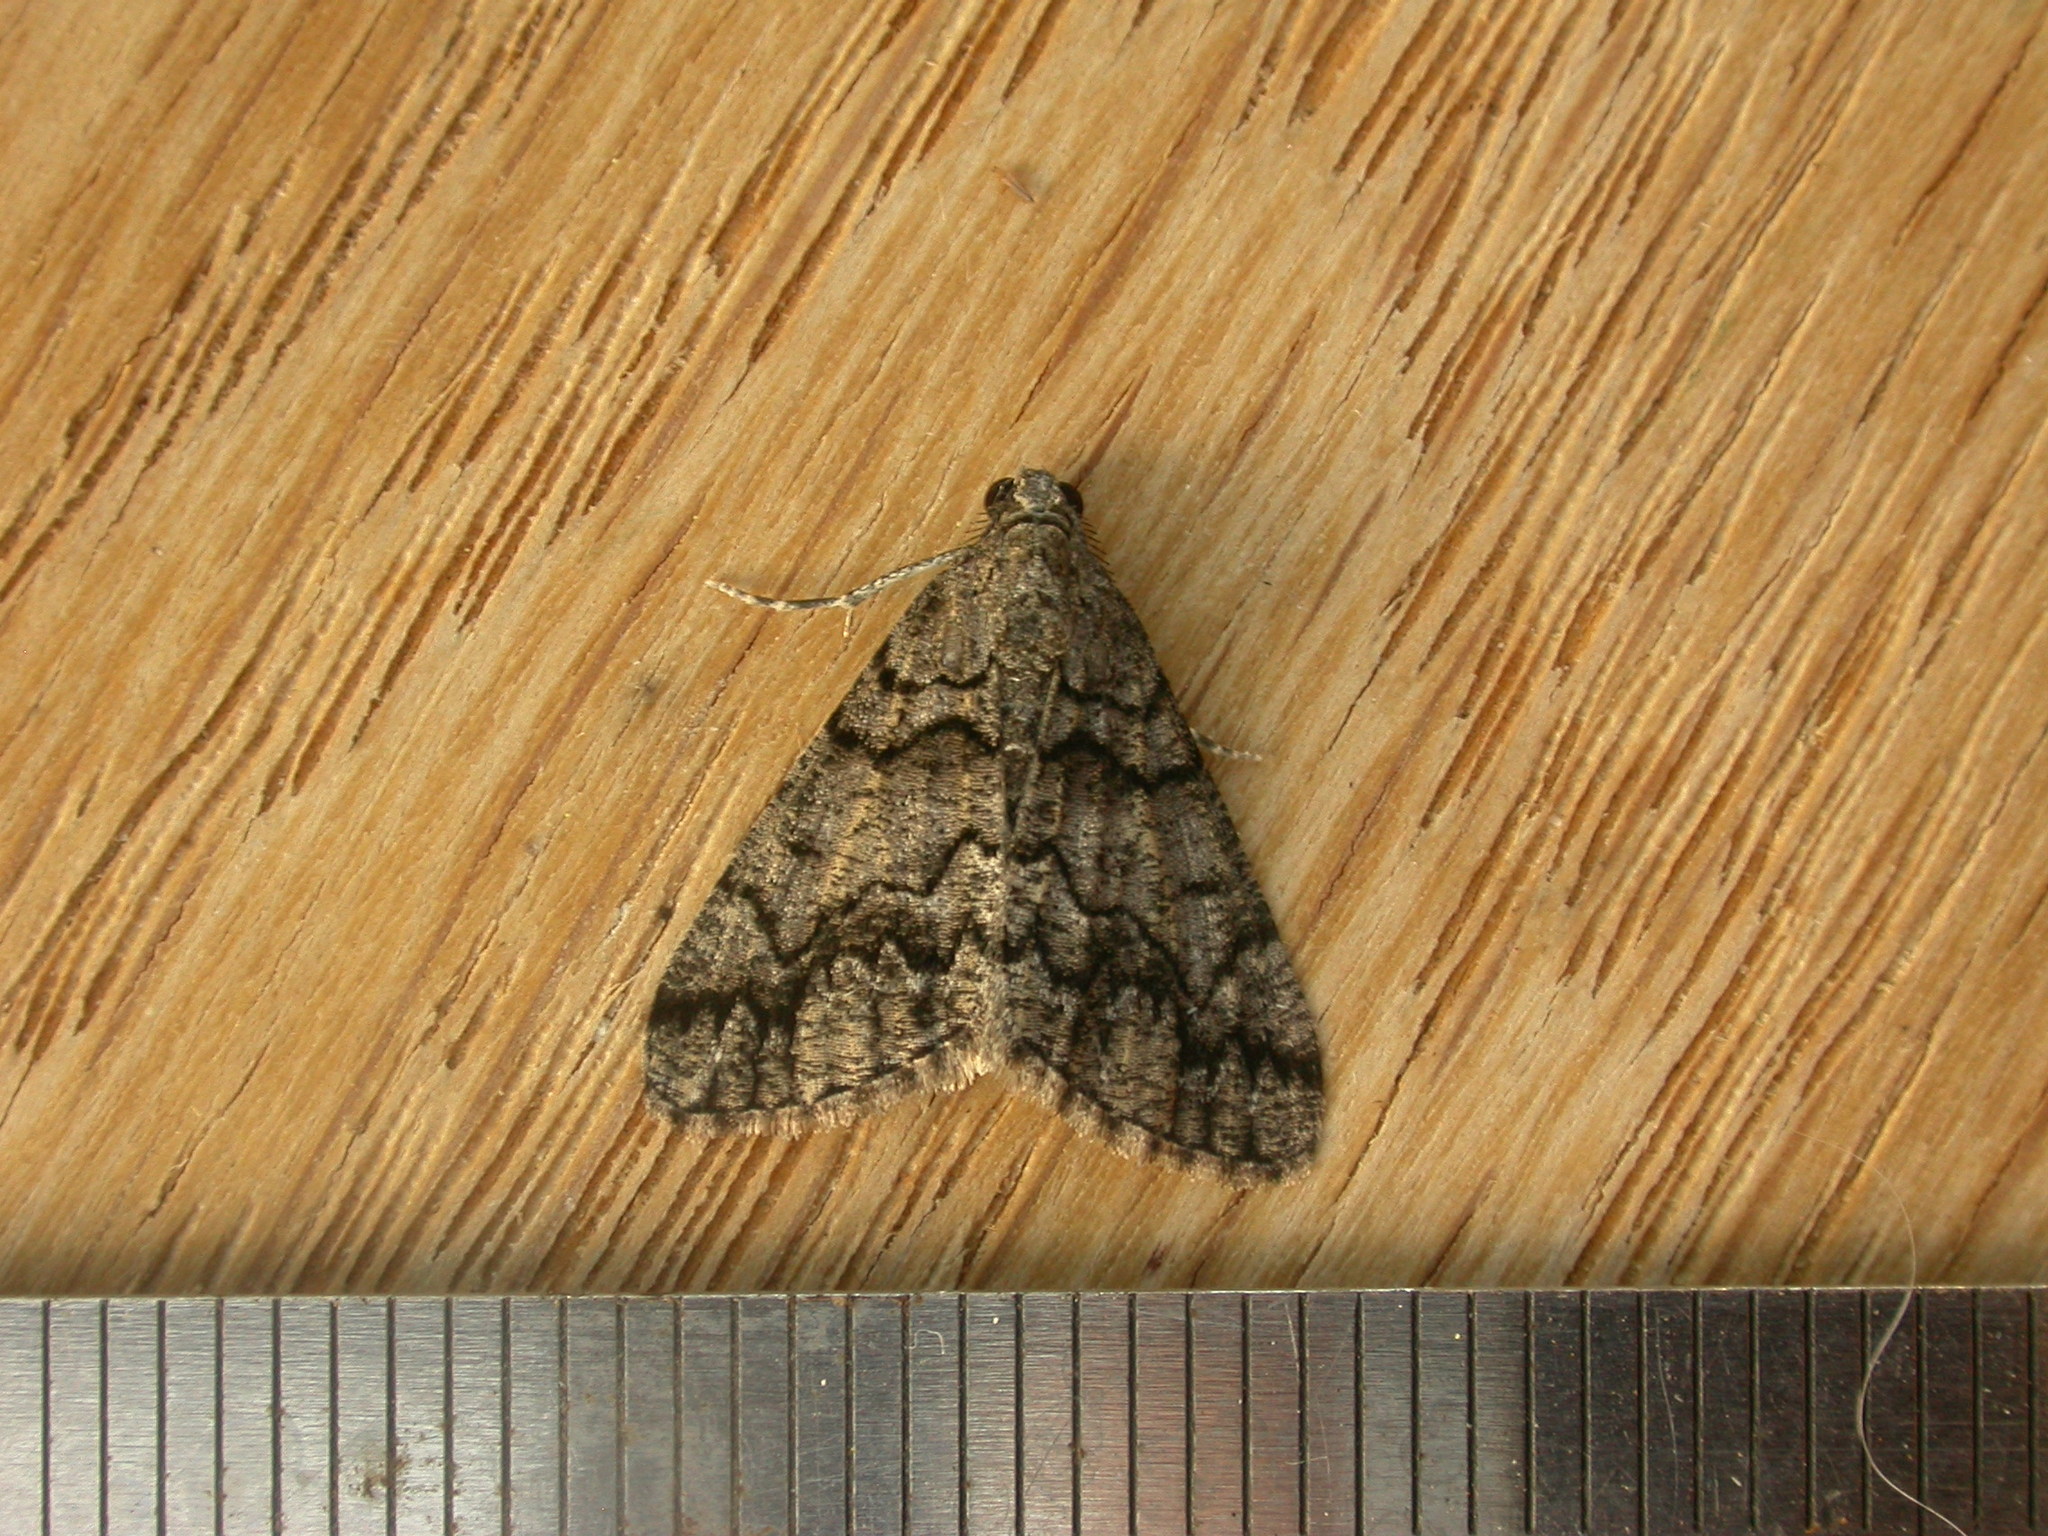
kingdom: Animalia
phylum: Arthropoda
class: Insecta
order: Lepidoptera
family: Geometridae
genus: Lipogya
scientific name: Lipogya exprimataria
